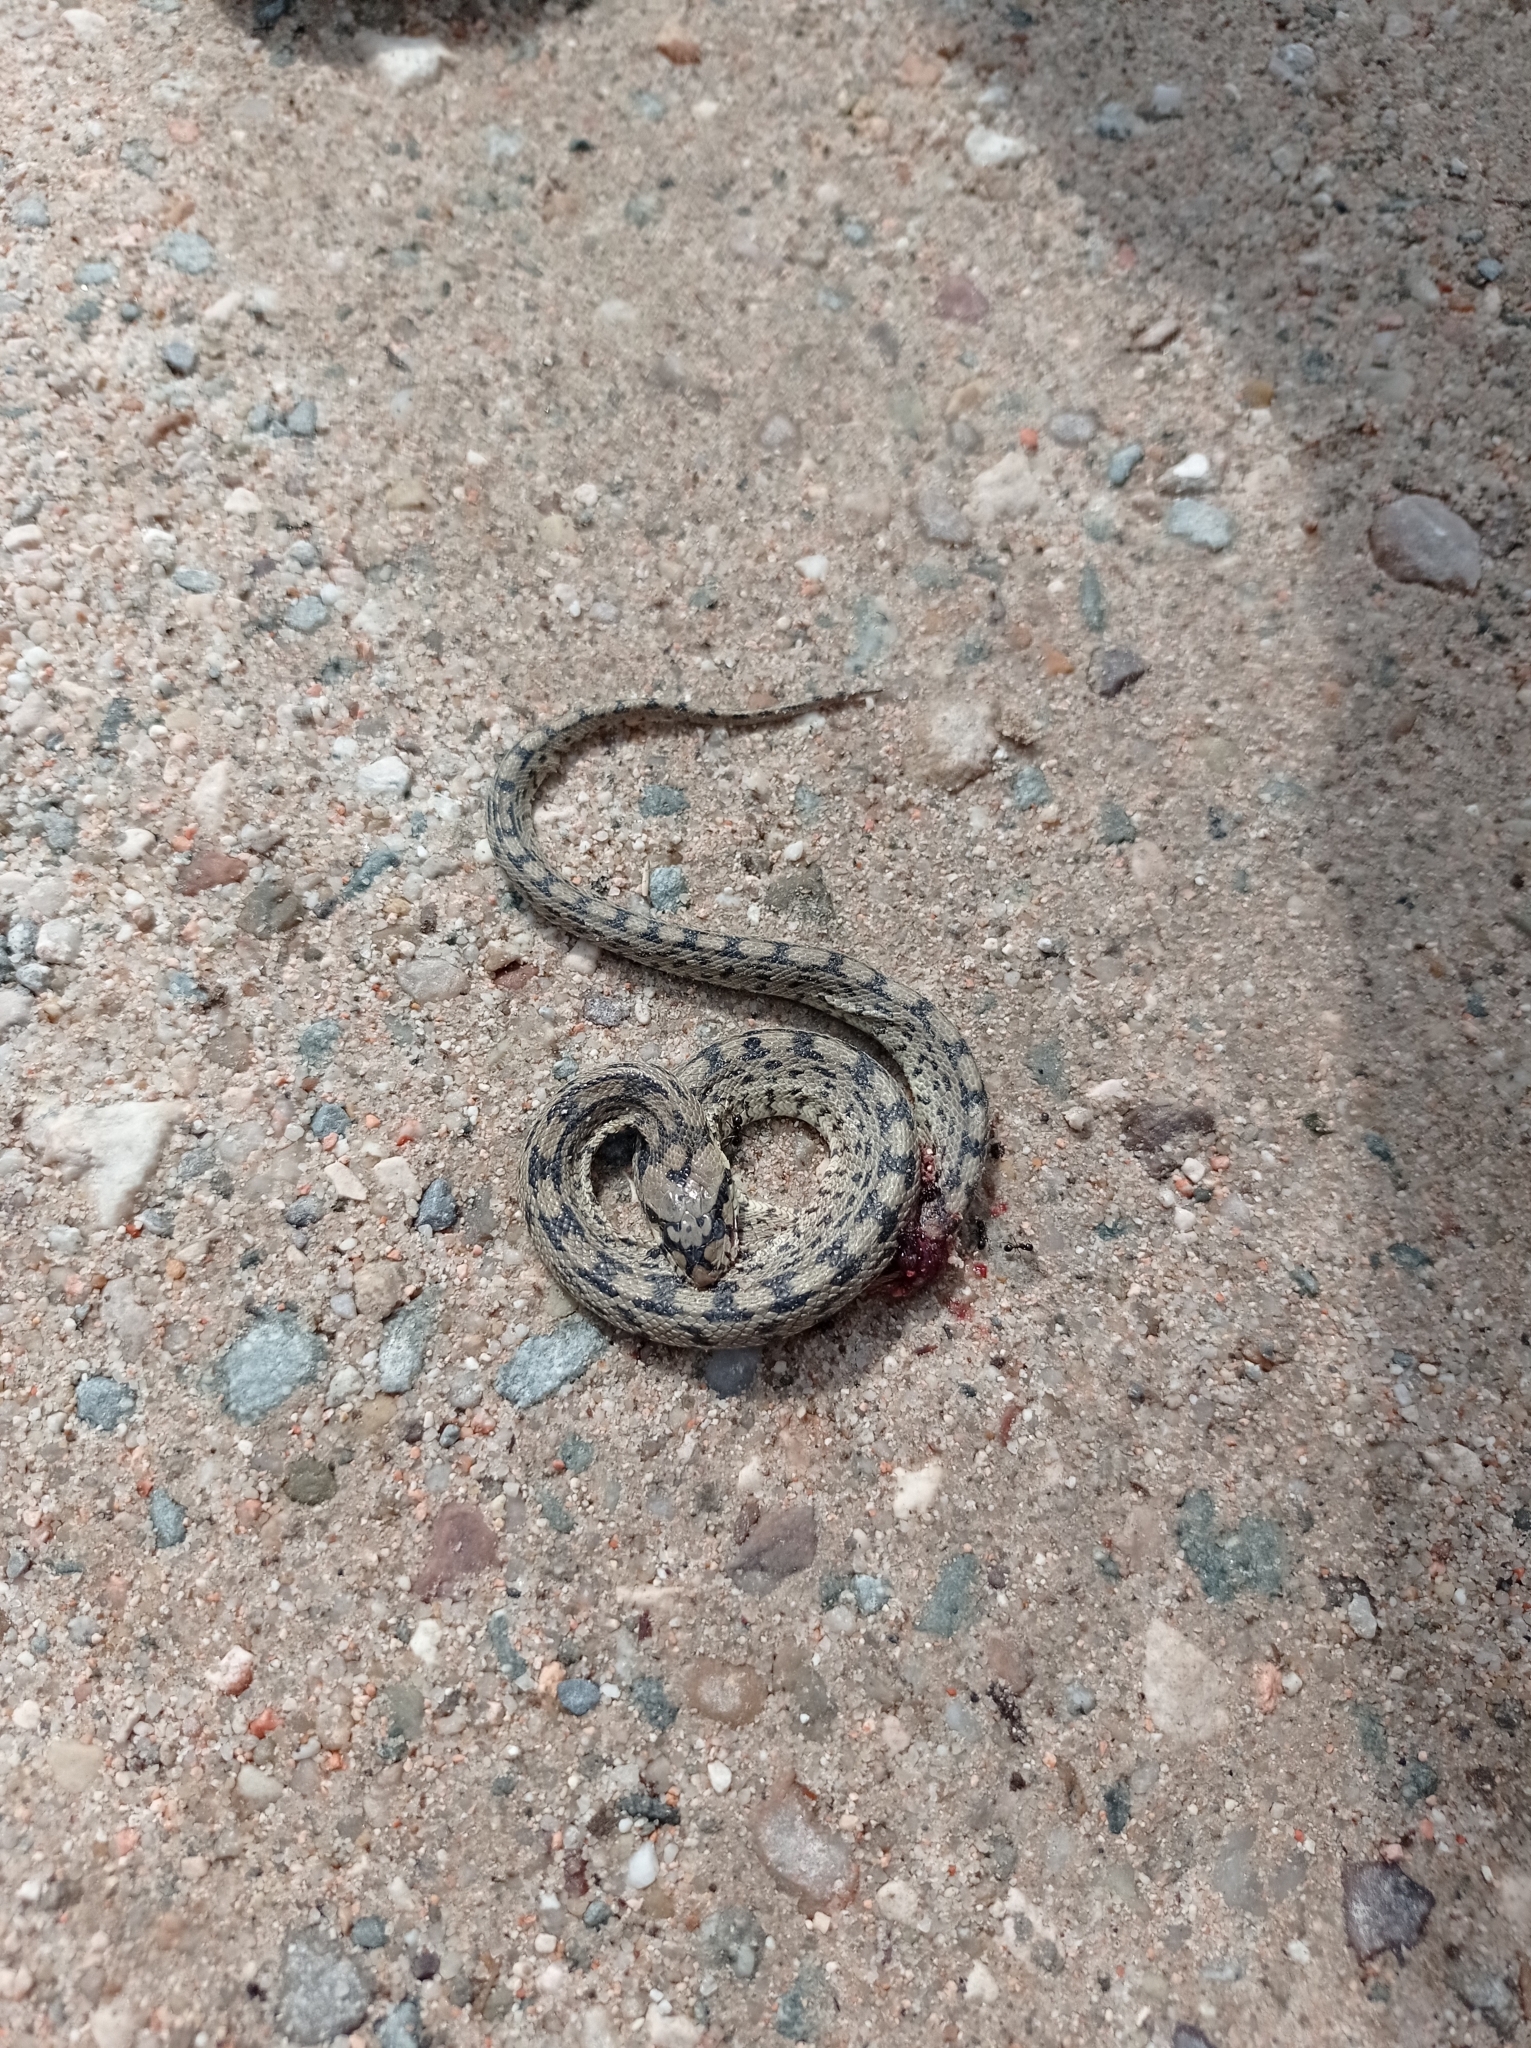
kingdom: Animalia
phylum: Chordata
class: Squamata
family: Colubridae
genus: Zamenis
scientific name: Zamenis scalaris
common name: Ladder snakes
